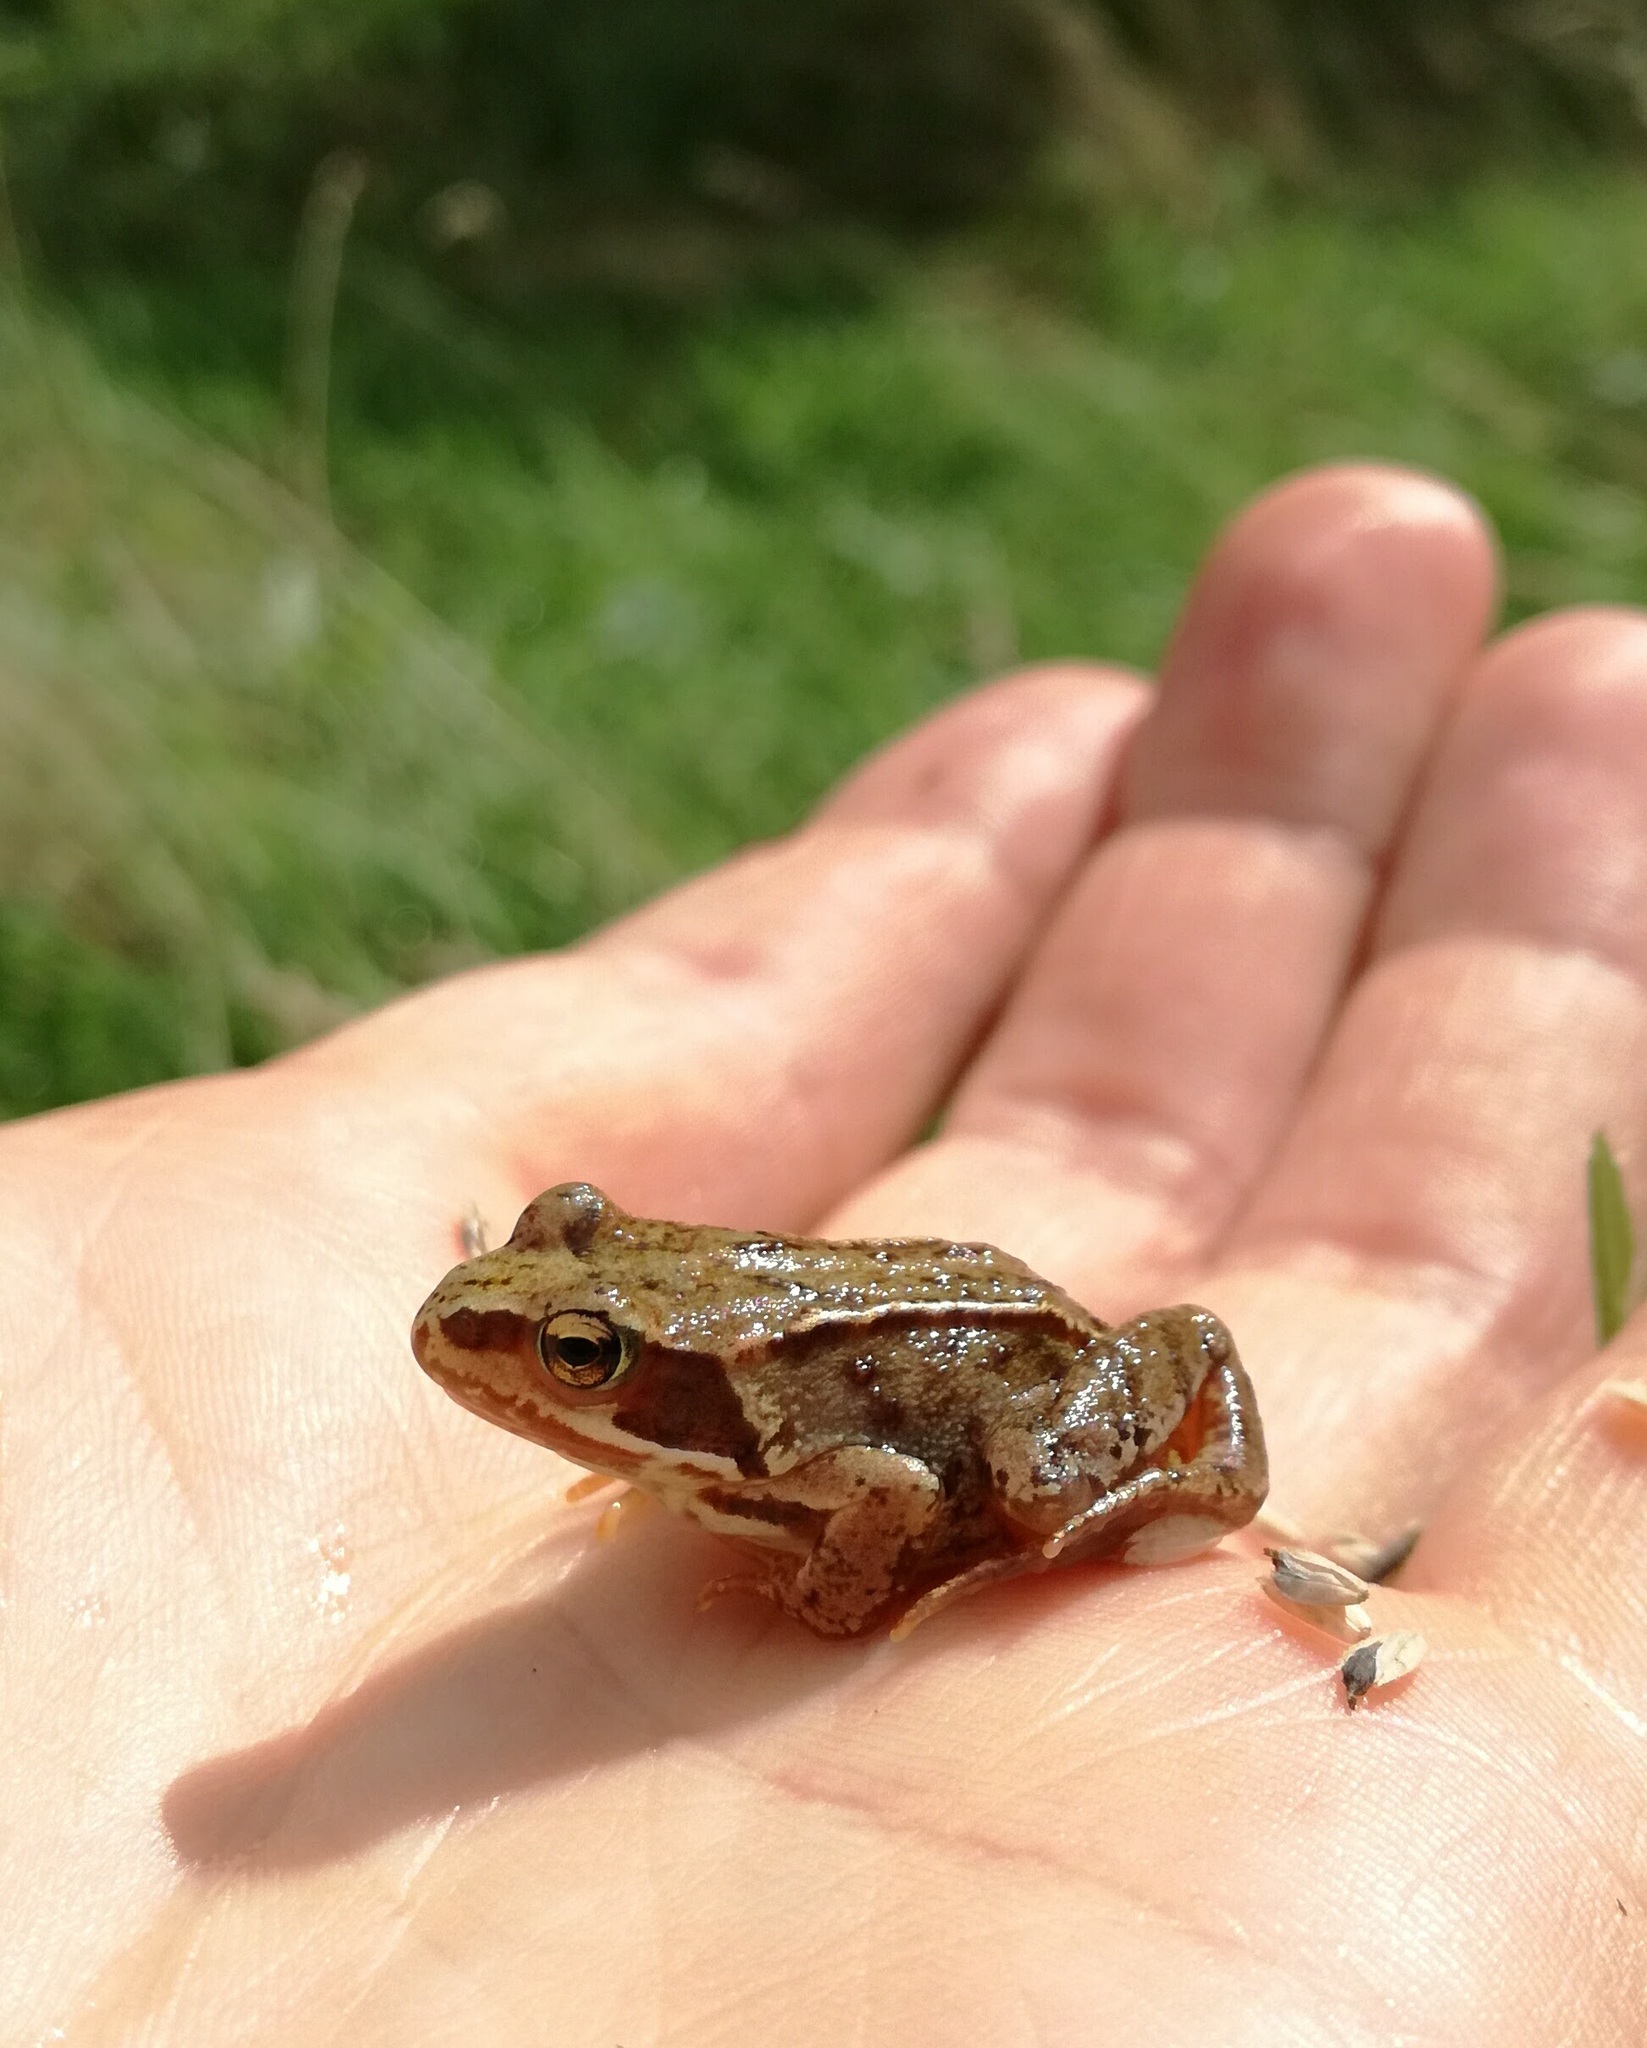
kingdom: Animalia
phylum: Chordata
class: Amphibia
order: Anura
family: Ranidae
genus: Rana
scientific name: Rana temporaria
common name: Common frog
